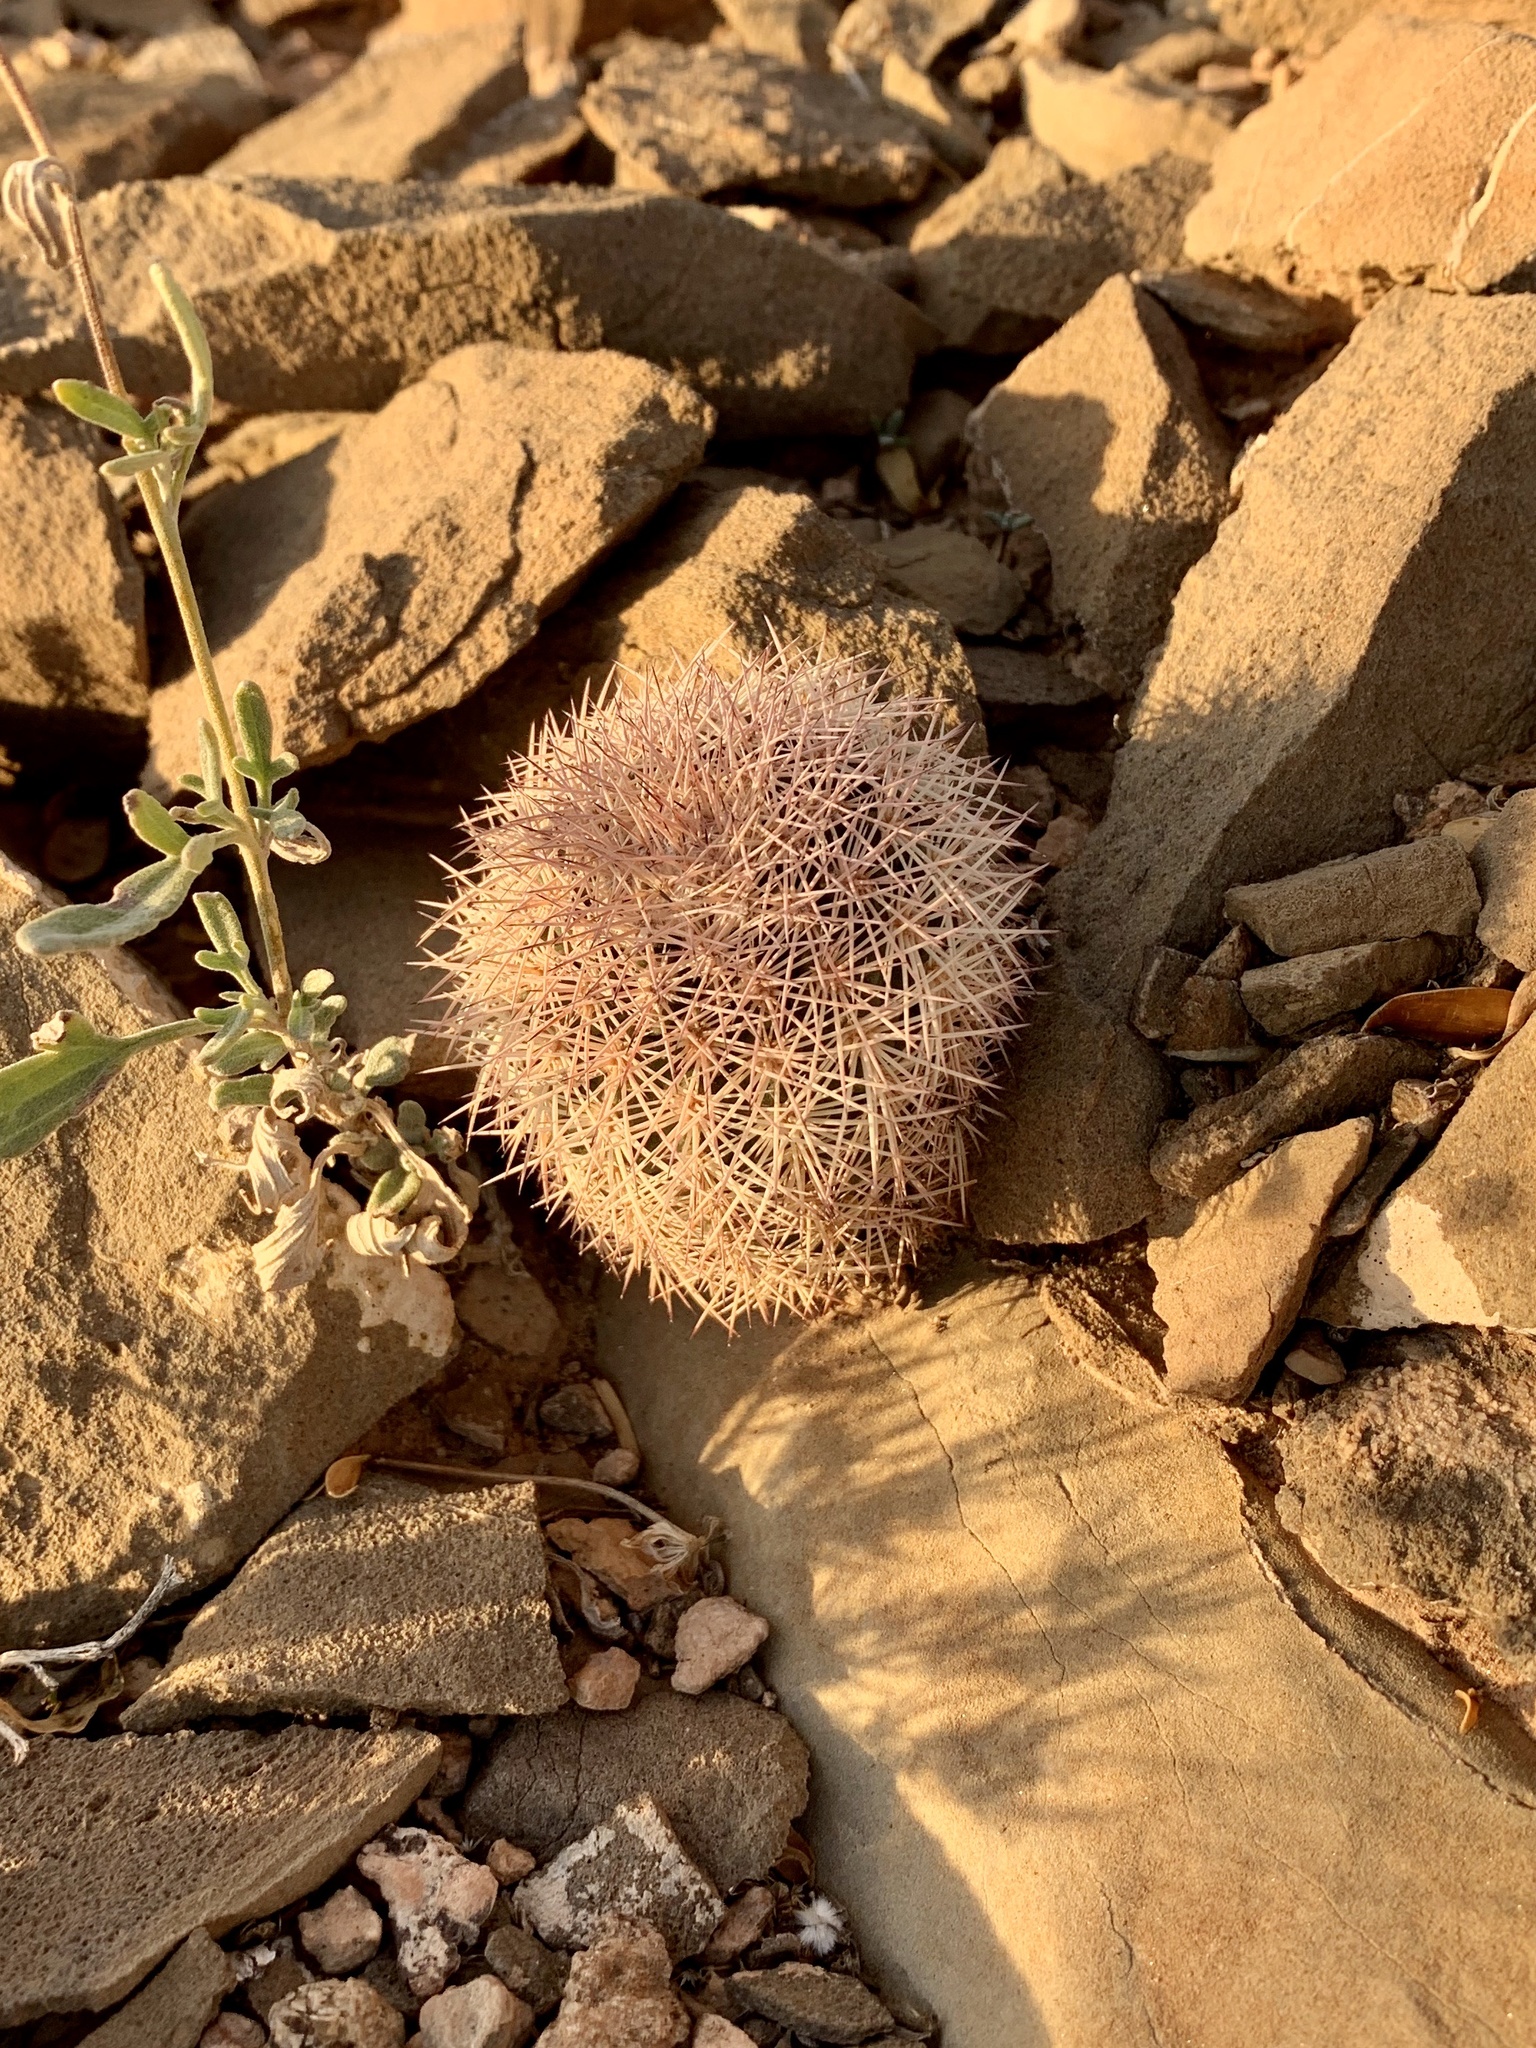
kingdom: Plantae
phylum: Tracheophyta
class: Magnoliopsida
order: Caryophyllales
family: Cactaceae
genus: Echinocereus
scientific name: Echinocereus dasyacanthus
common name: Spiny hedgehog cactus
